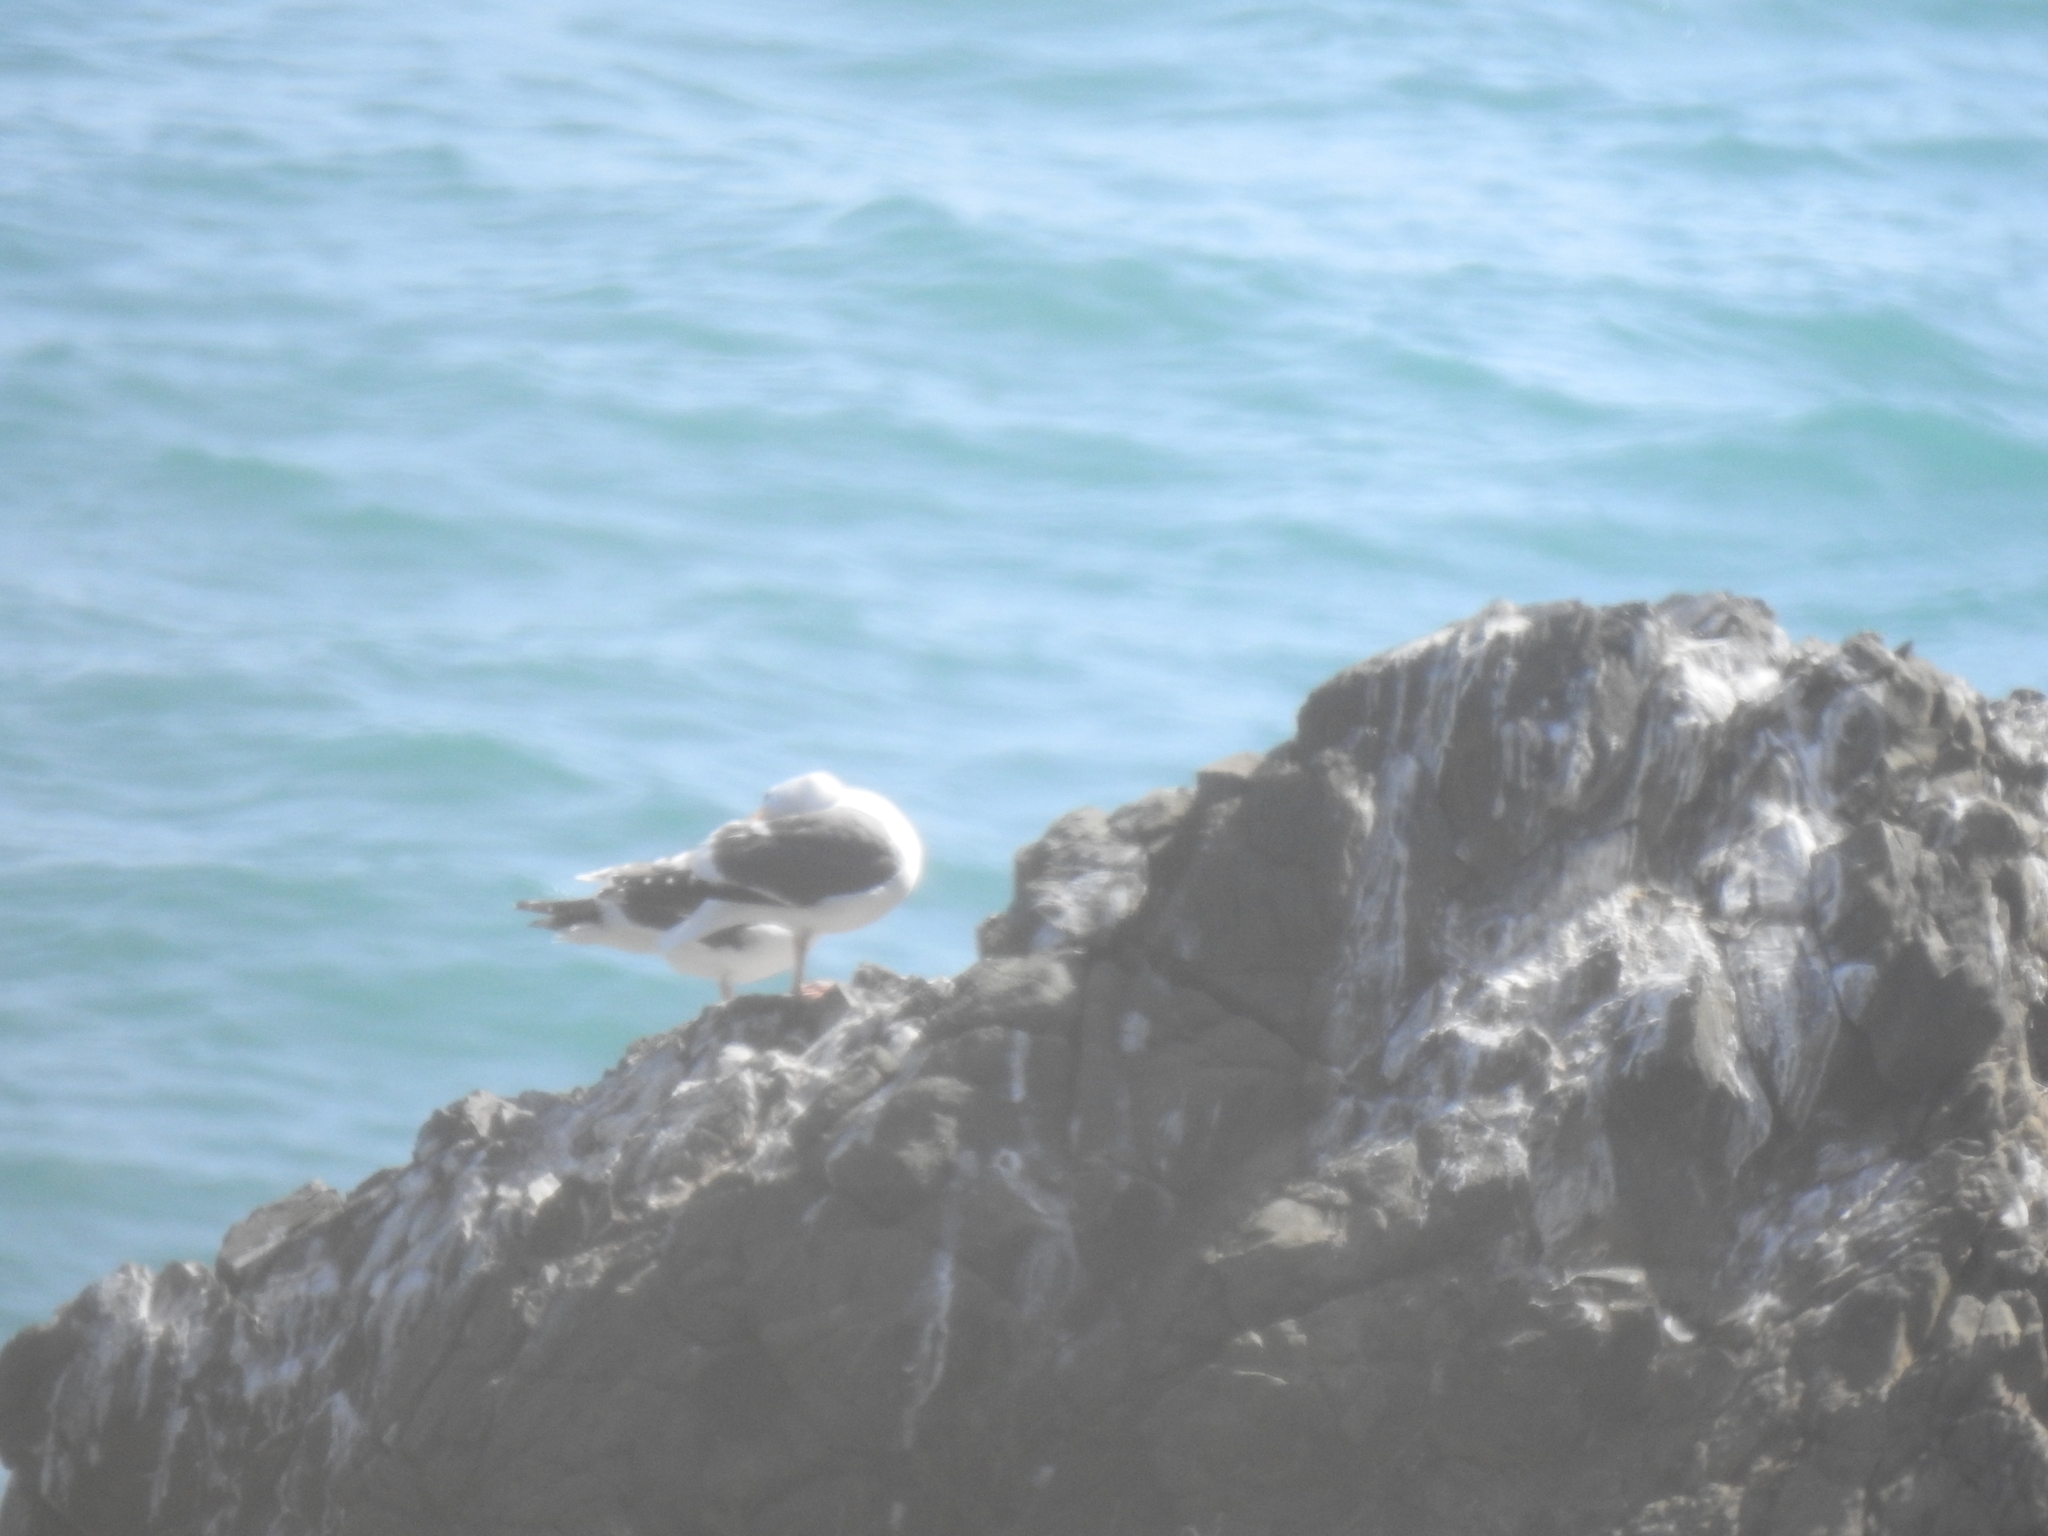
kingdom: Animalia
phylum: Chordata
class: Aves
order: Charadriiformes
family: Laridae
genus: Larus
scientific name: Larus occidentalis
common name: Western gull
